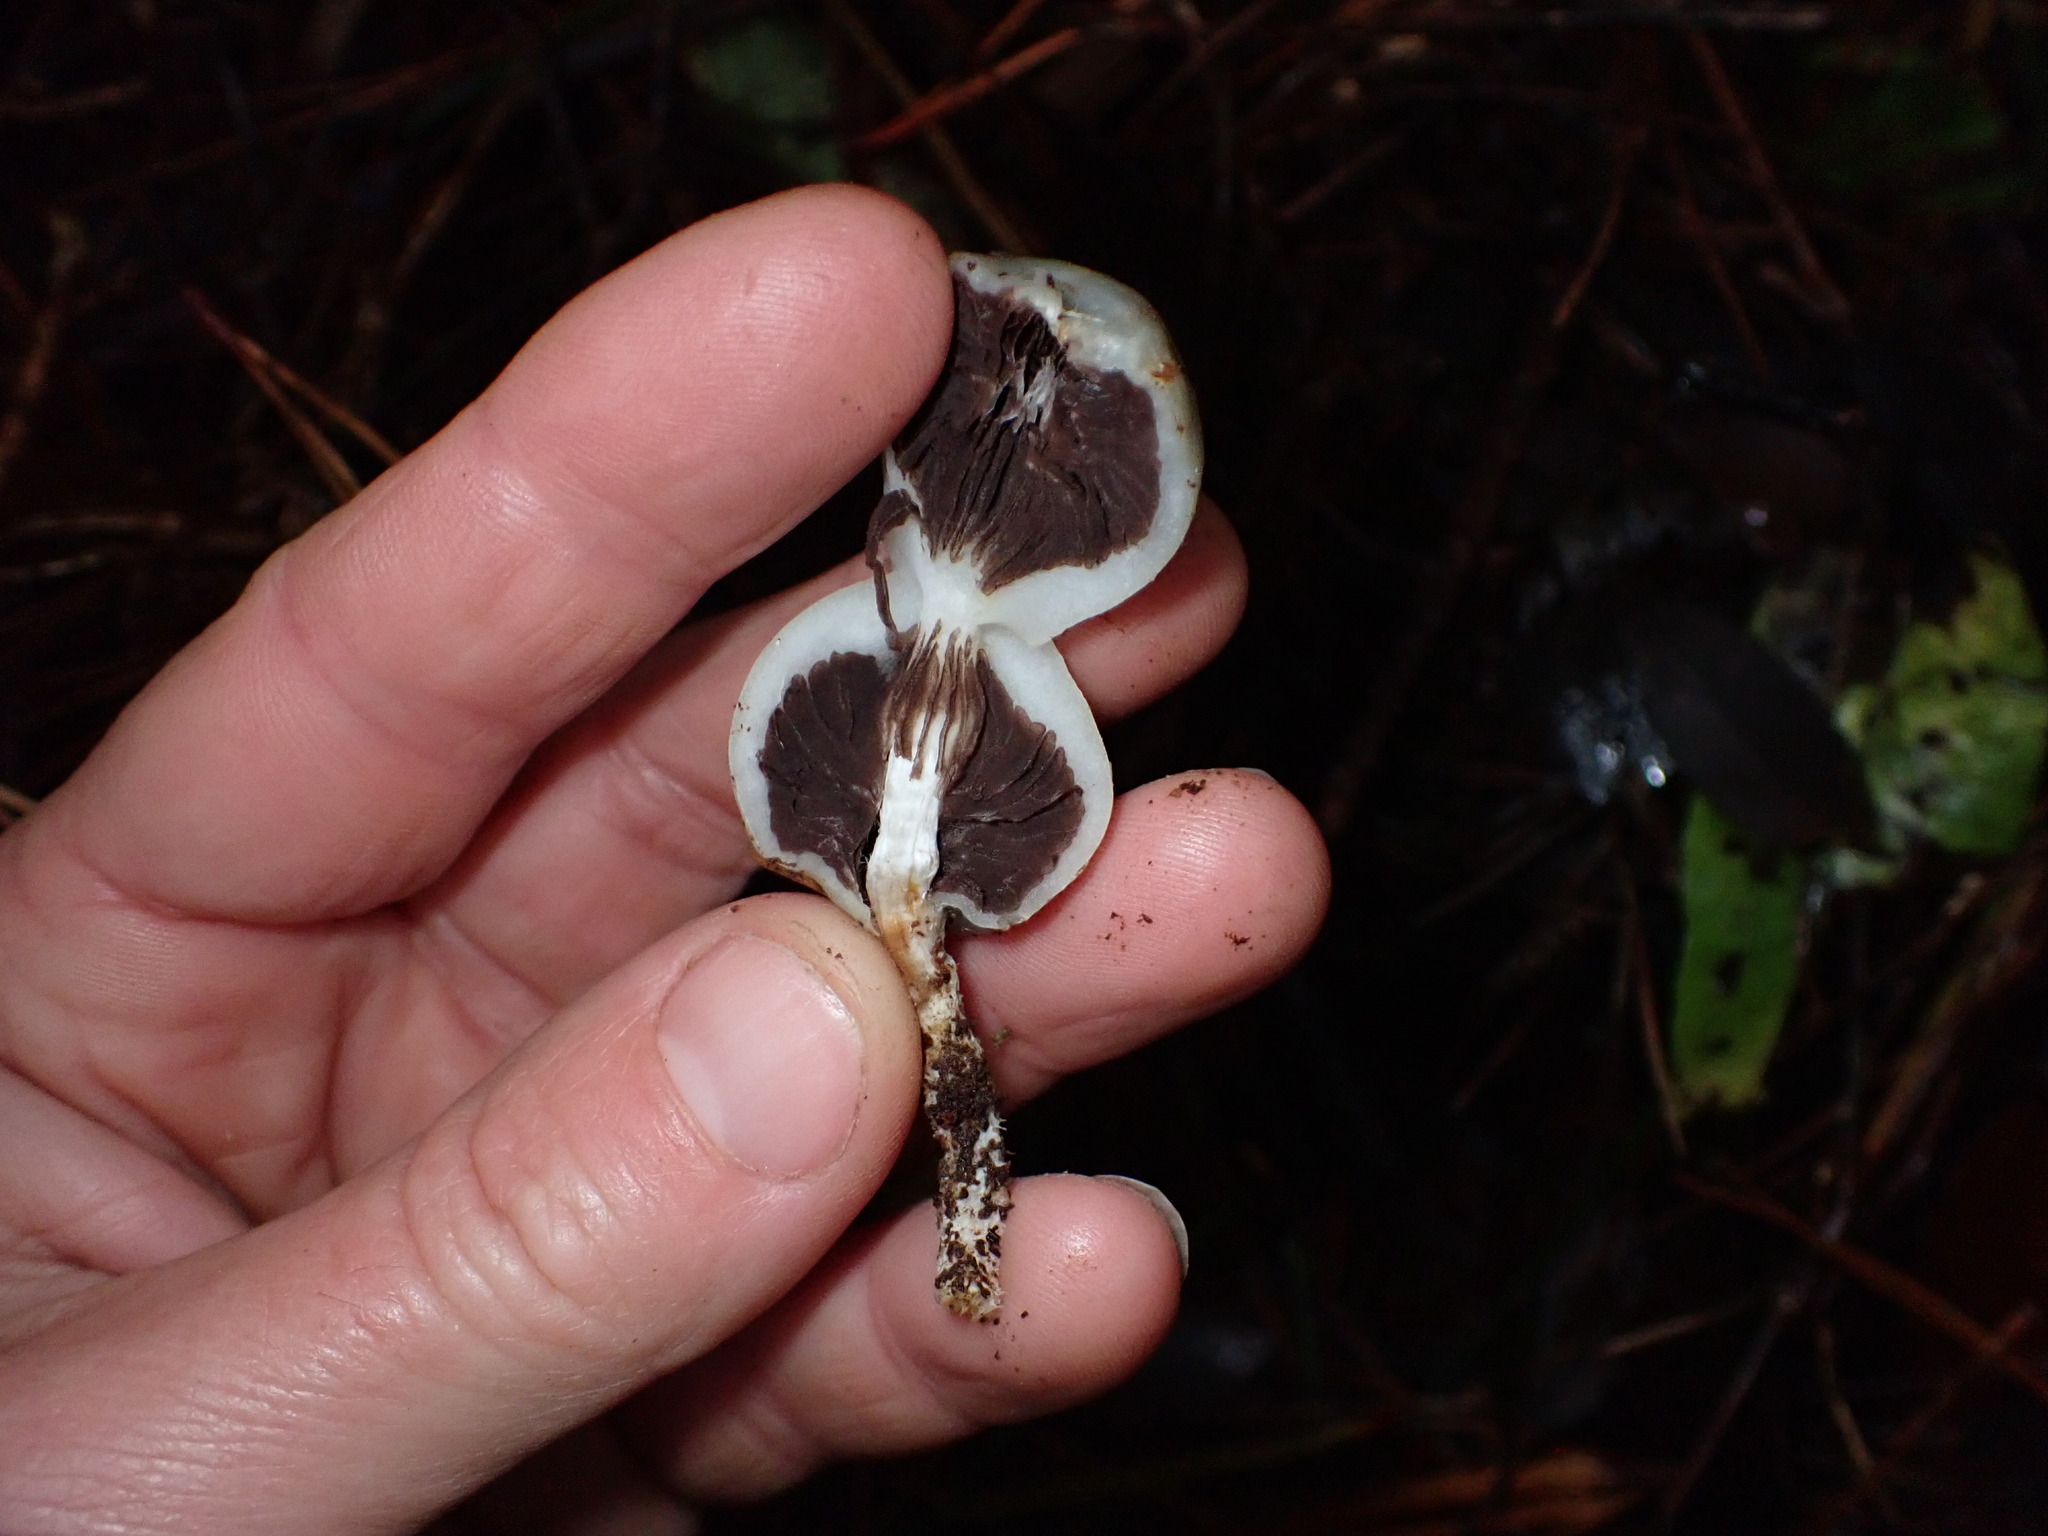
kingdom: Fungi
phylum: Basidiomycota
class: Agaricomycetes
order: Agaricales
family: Hymenogastraceae
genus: Psilocybe
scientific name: Psilocybe weraroa
